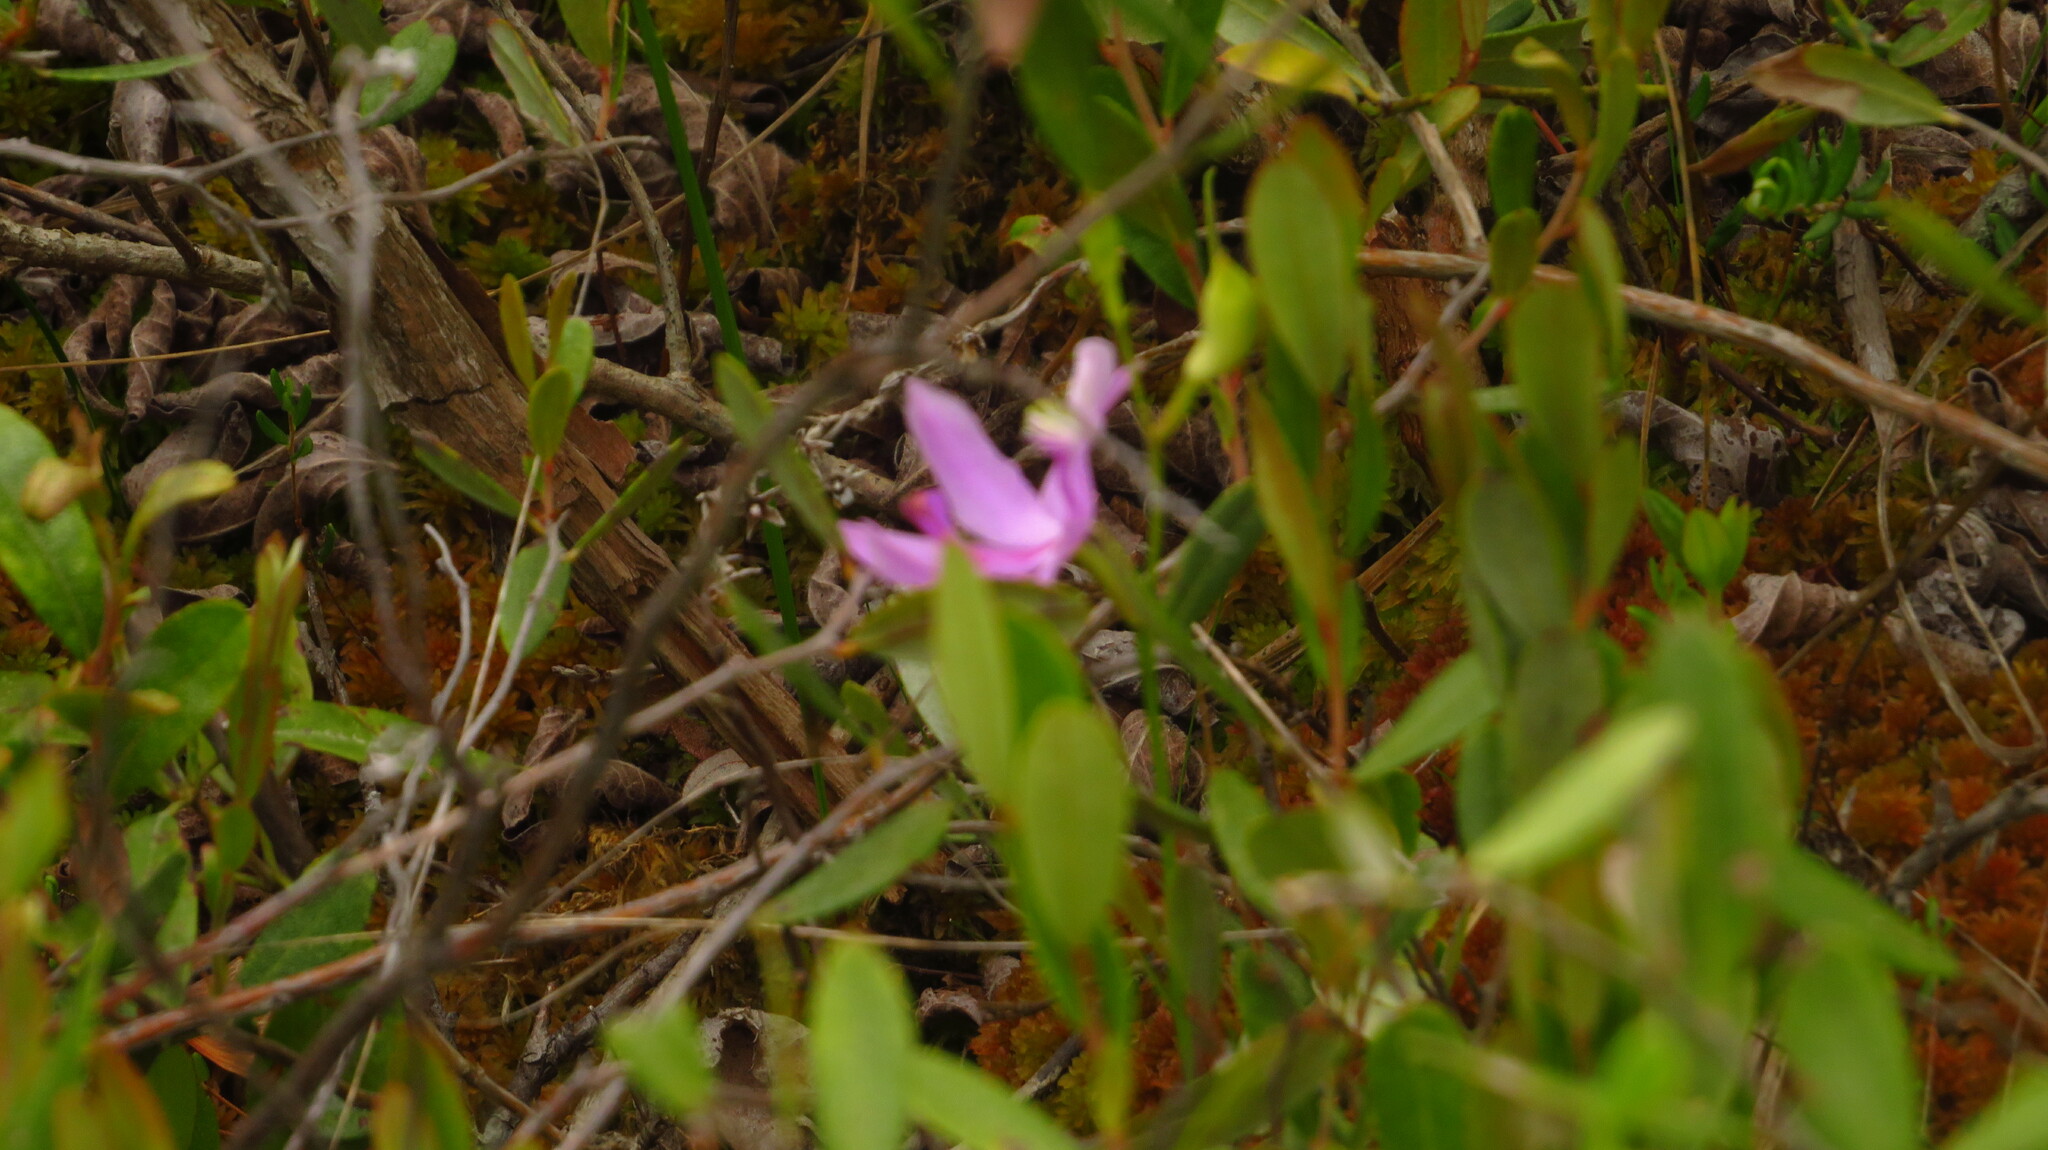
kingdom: Plantae
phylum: Tracheophyta
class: Liliopsida
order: Asparagales
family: Orchidaceae
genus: Calopogon
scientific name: Calopogon tuberosus
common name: Grass-pink
